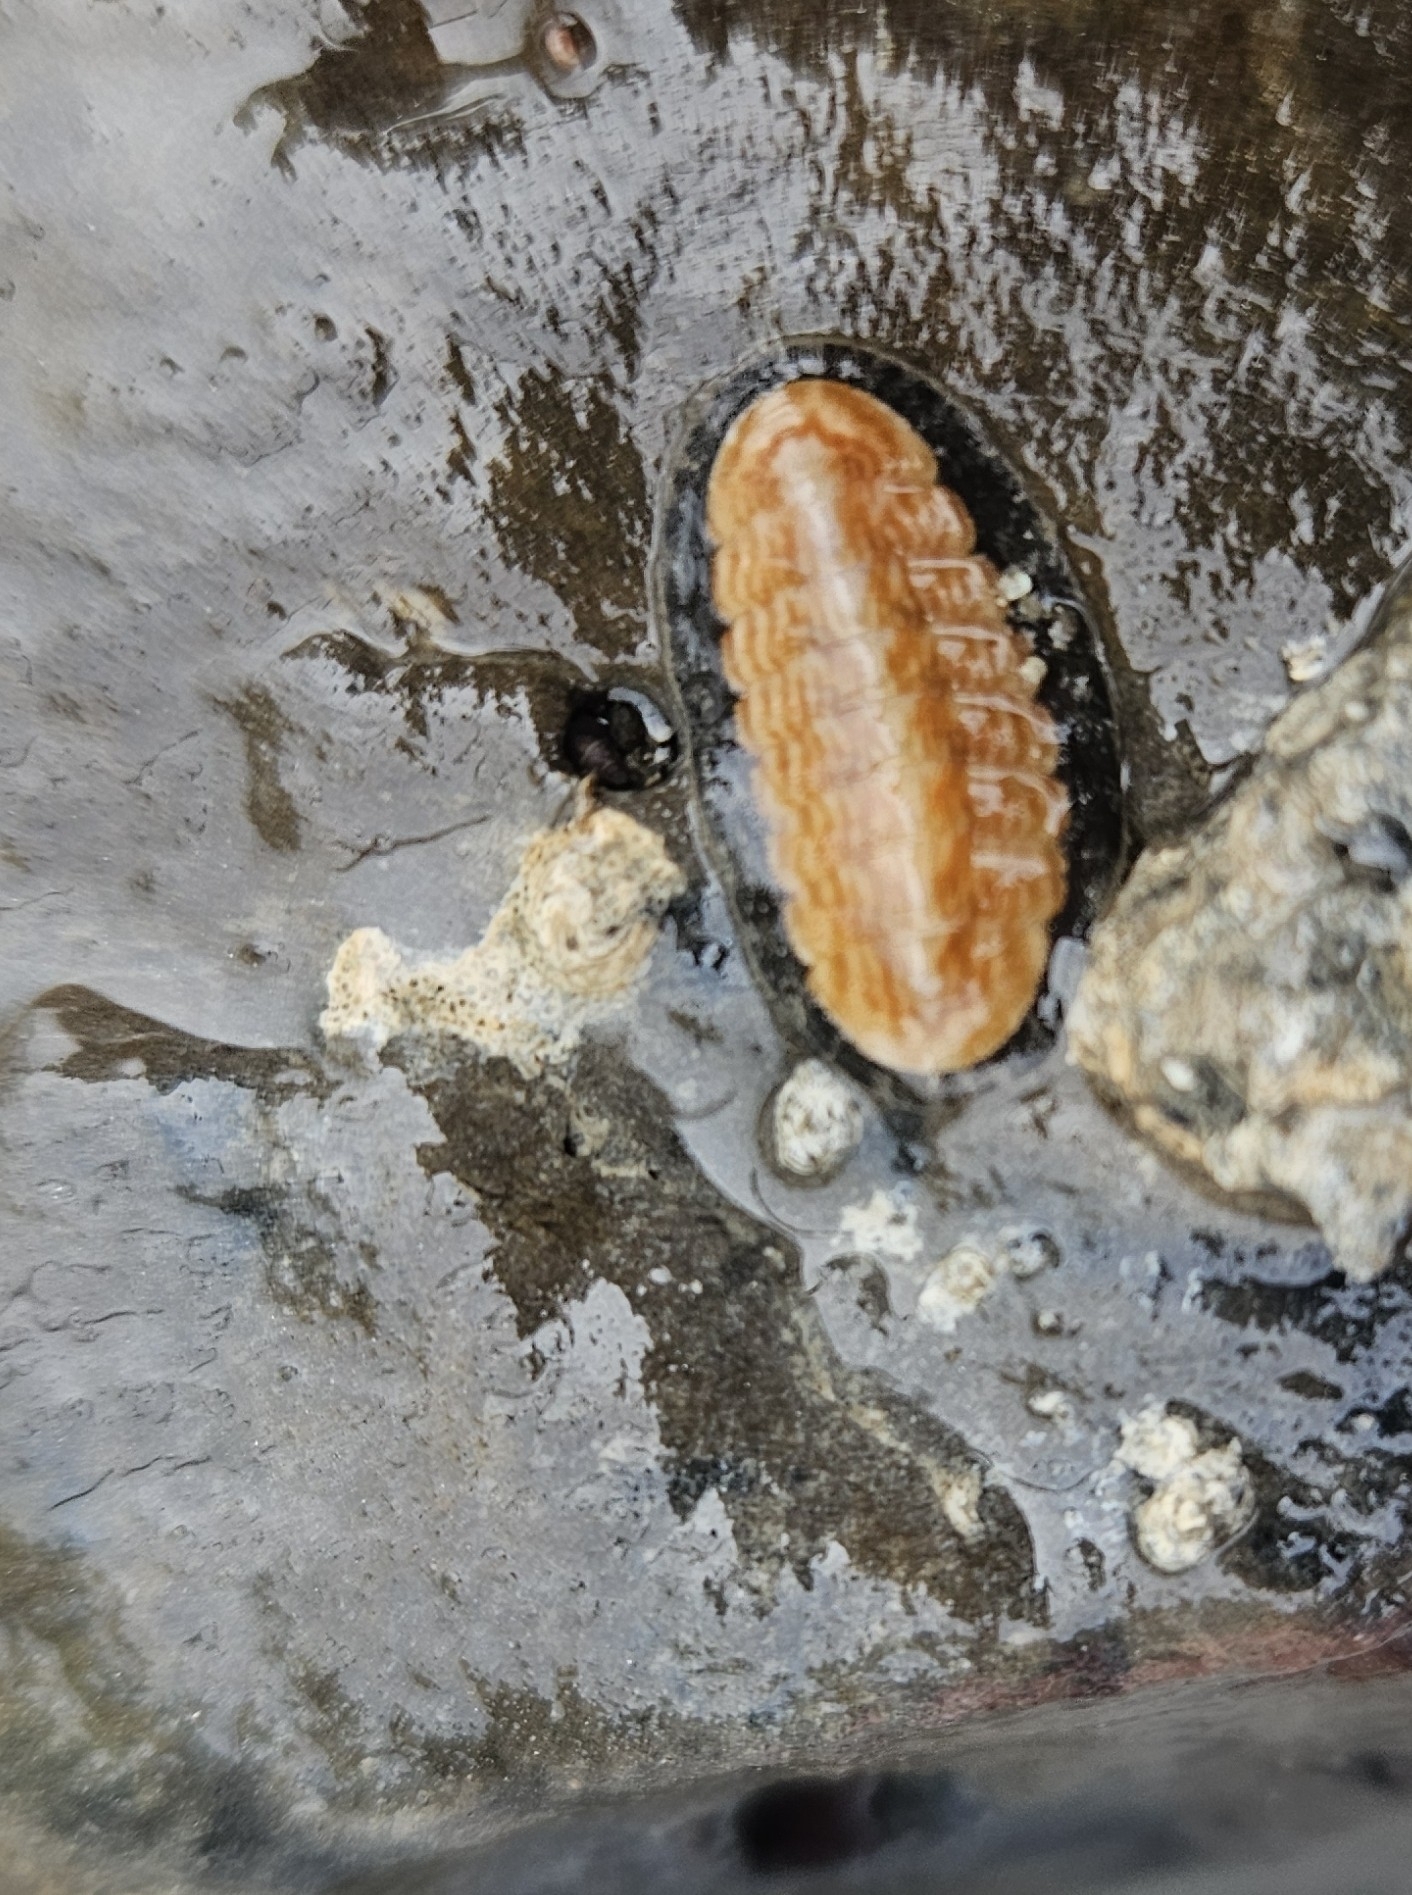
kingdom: Animalia
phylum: Mollusca
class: Polyplacophora
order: Chitonida
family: Ischnochitonidae
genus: Ischnochiton
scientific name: Ischnochiton maorianus
